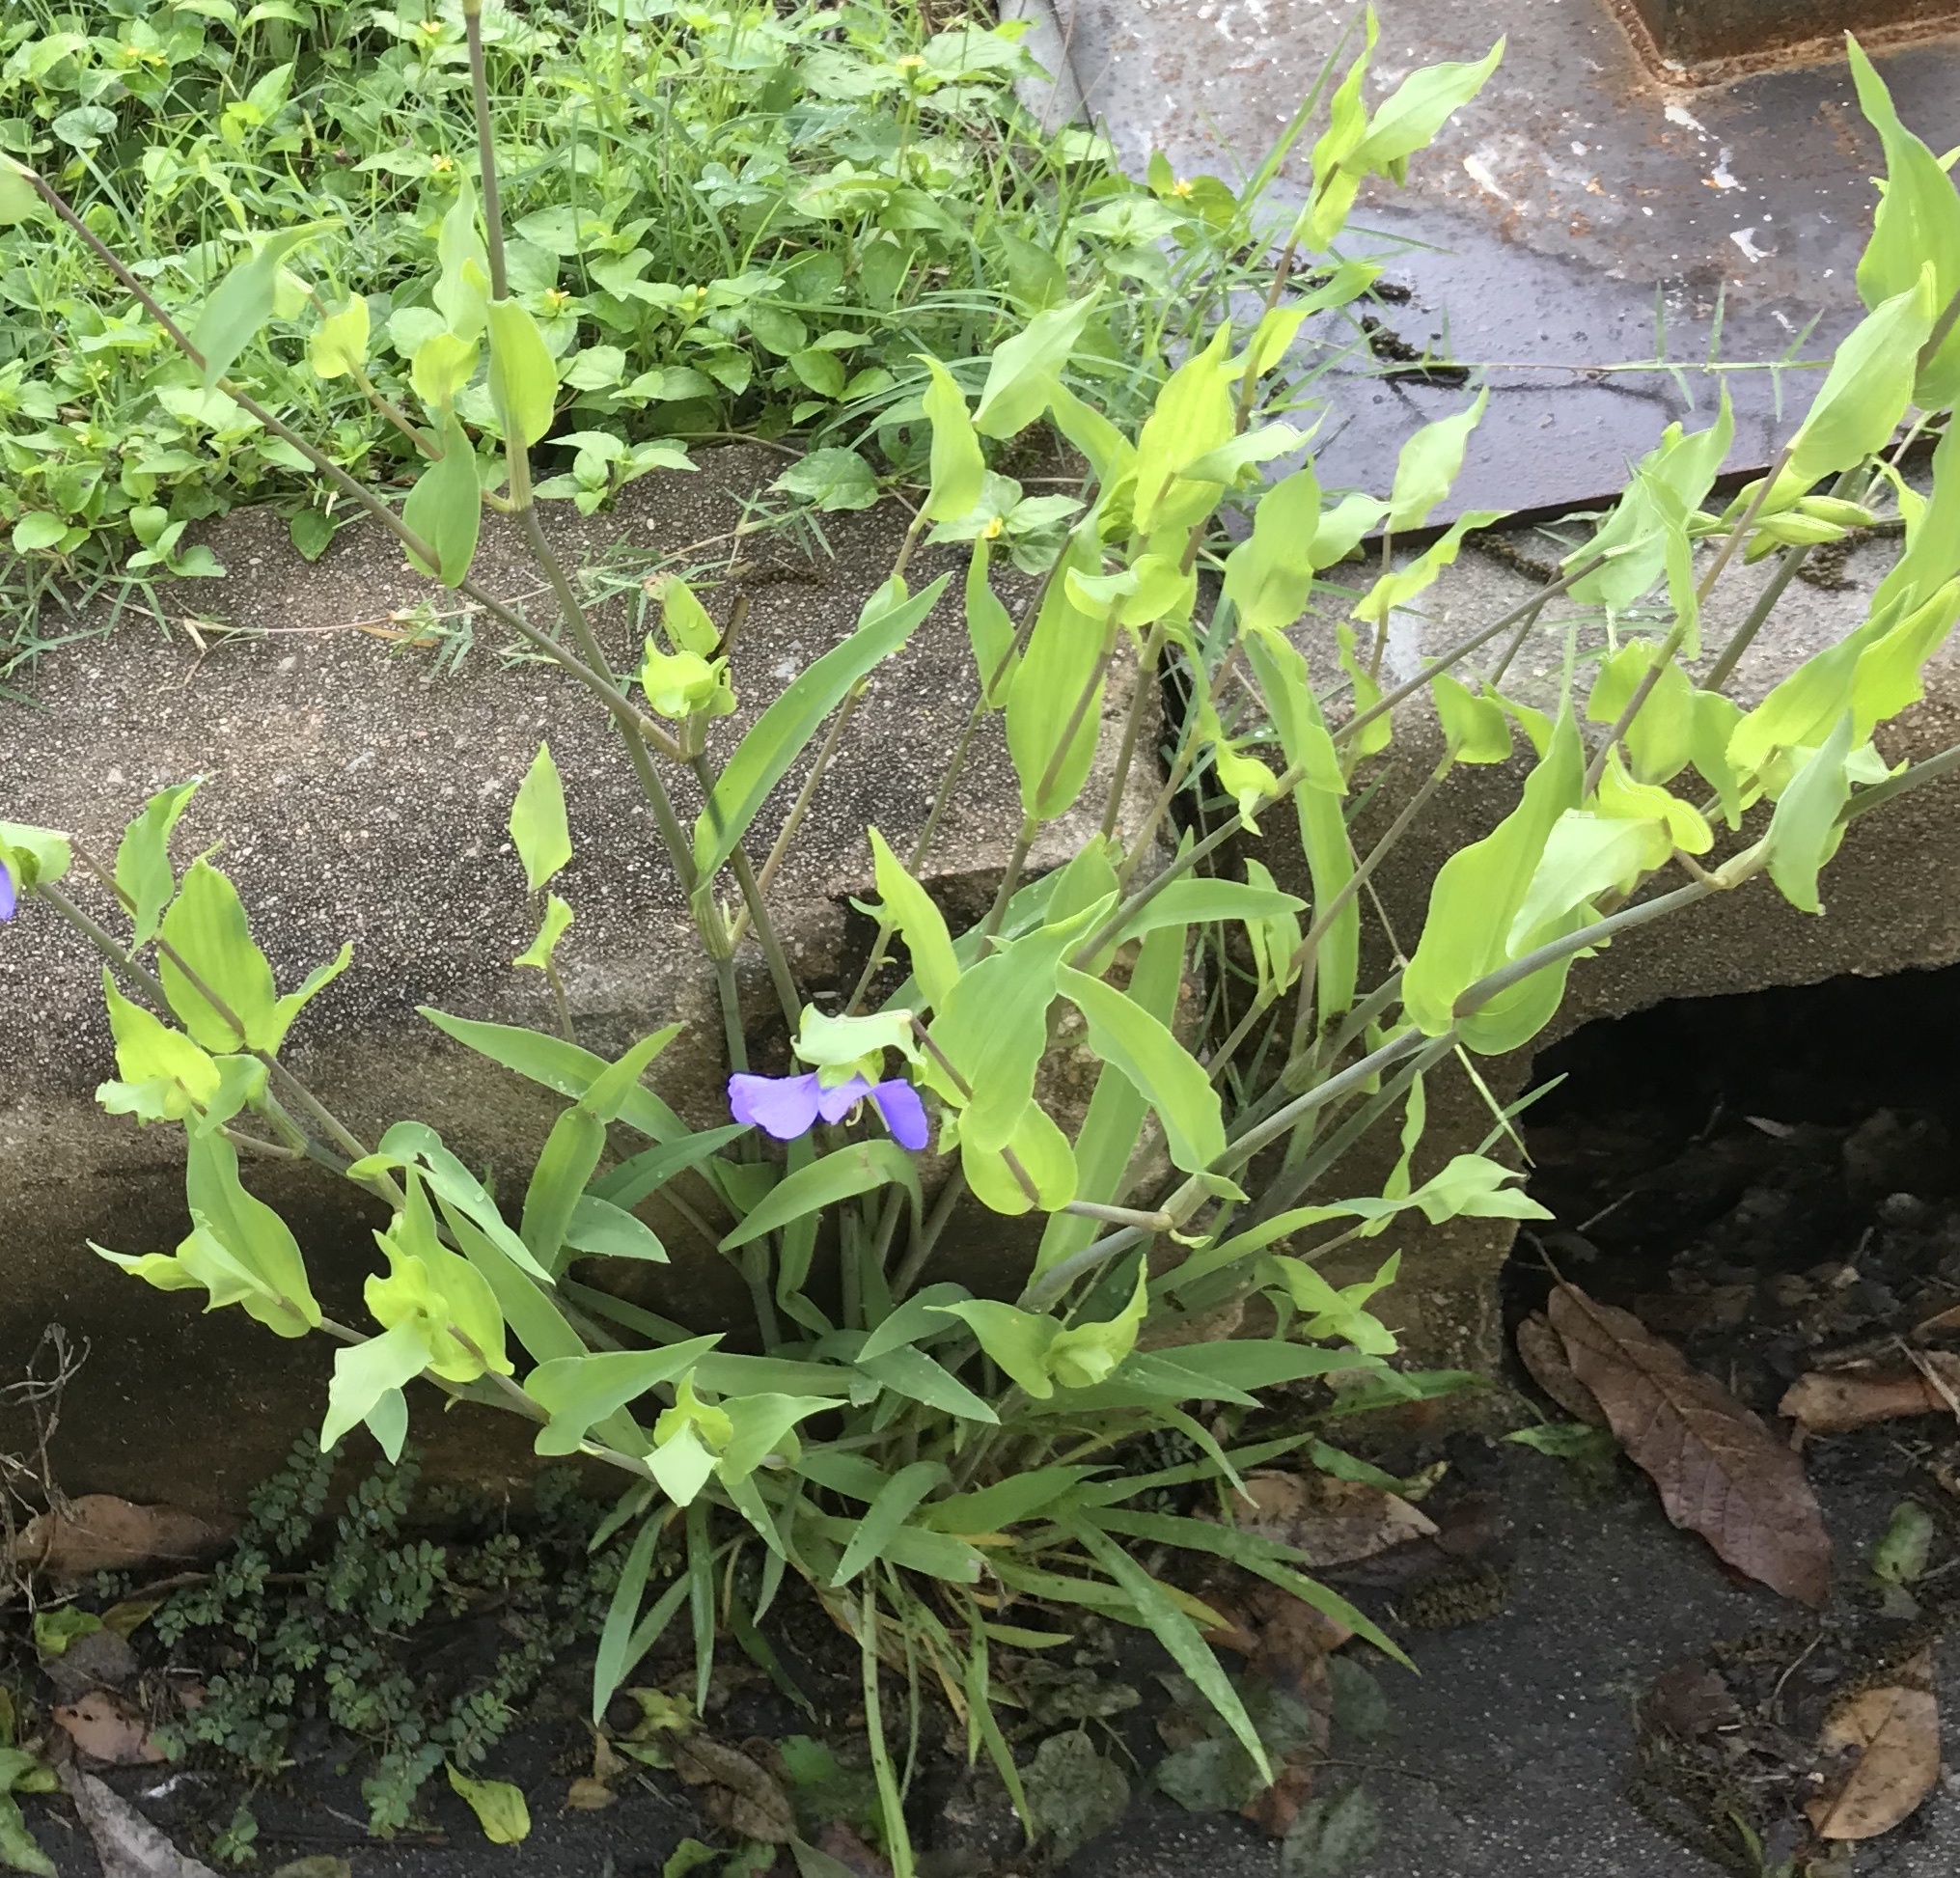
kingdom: Plantae
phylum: Tracheophyta
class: Liliopsida
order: Commelinales
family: Commelinaceae
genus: Tinantia
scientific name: Tinantia anomala
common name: False dayflower
